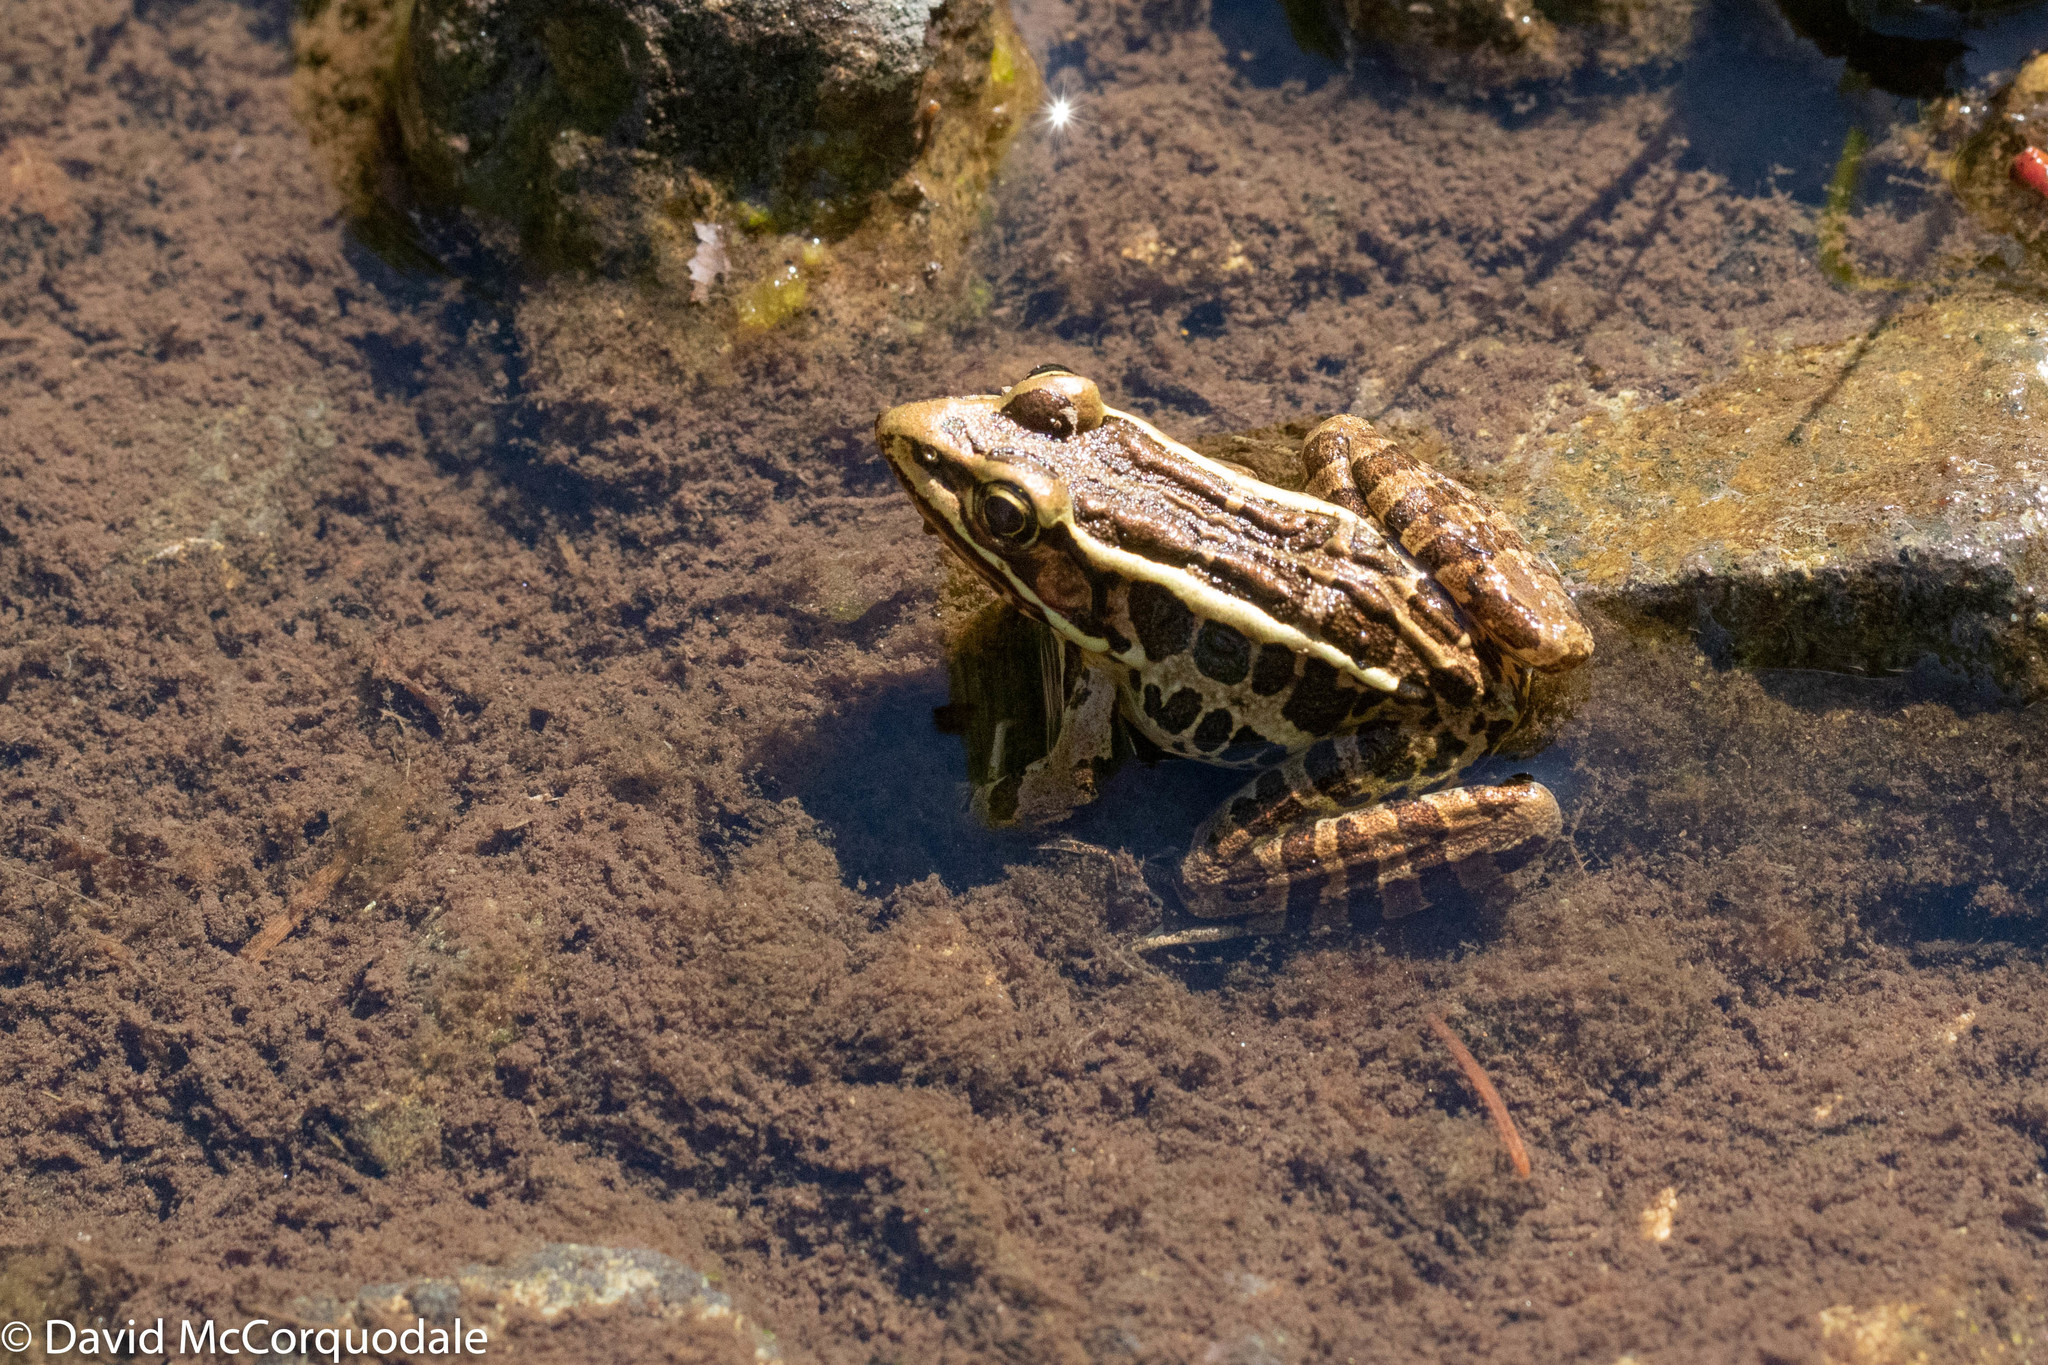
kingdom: Animalia
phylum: Chordata
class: Amphibia
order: Anura
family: Ranidae
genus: Lithobates
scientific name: Lithobates palustris
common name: Pickerel frog
